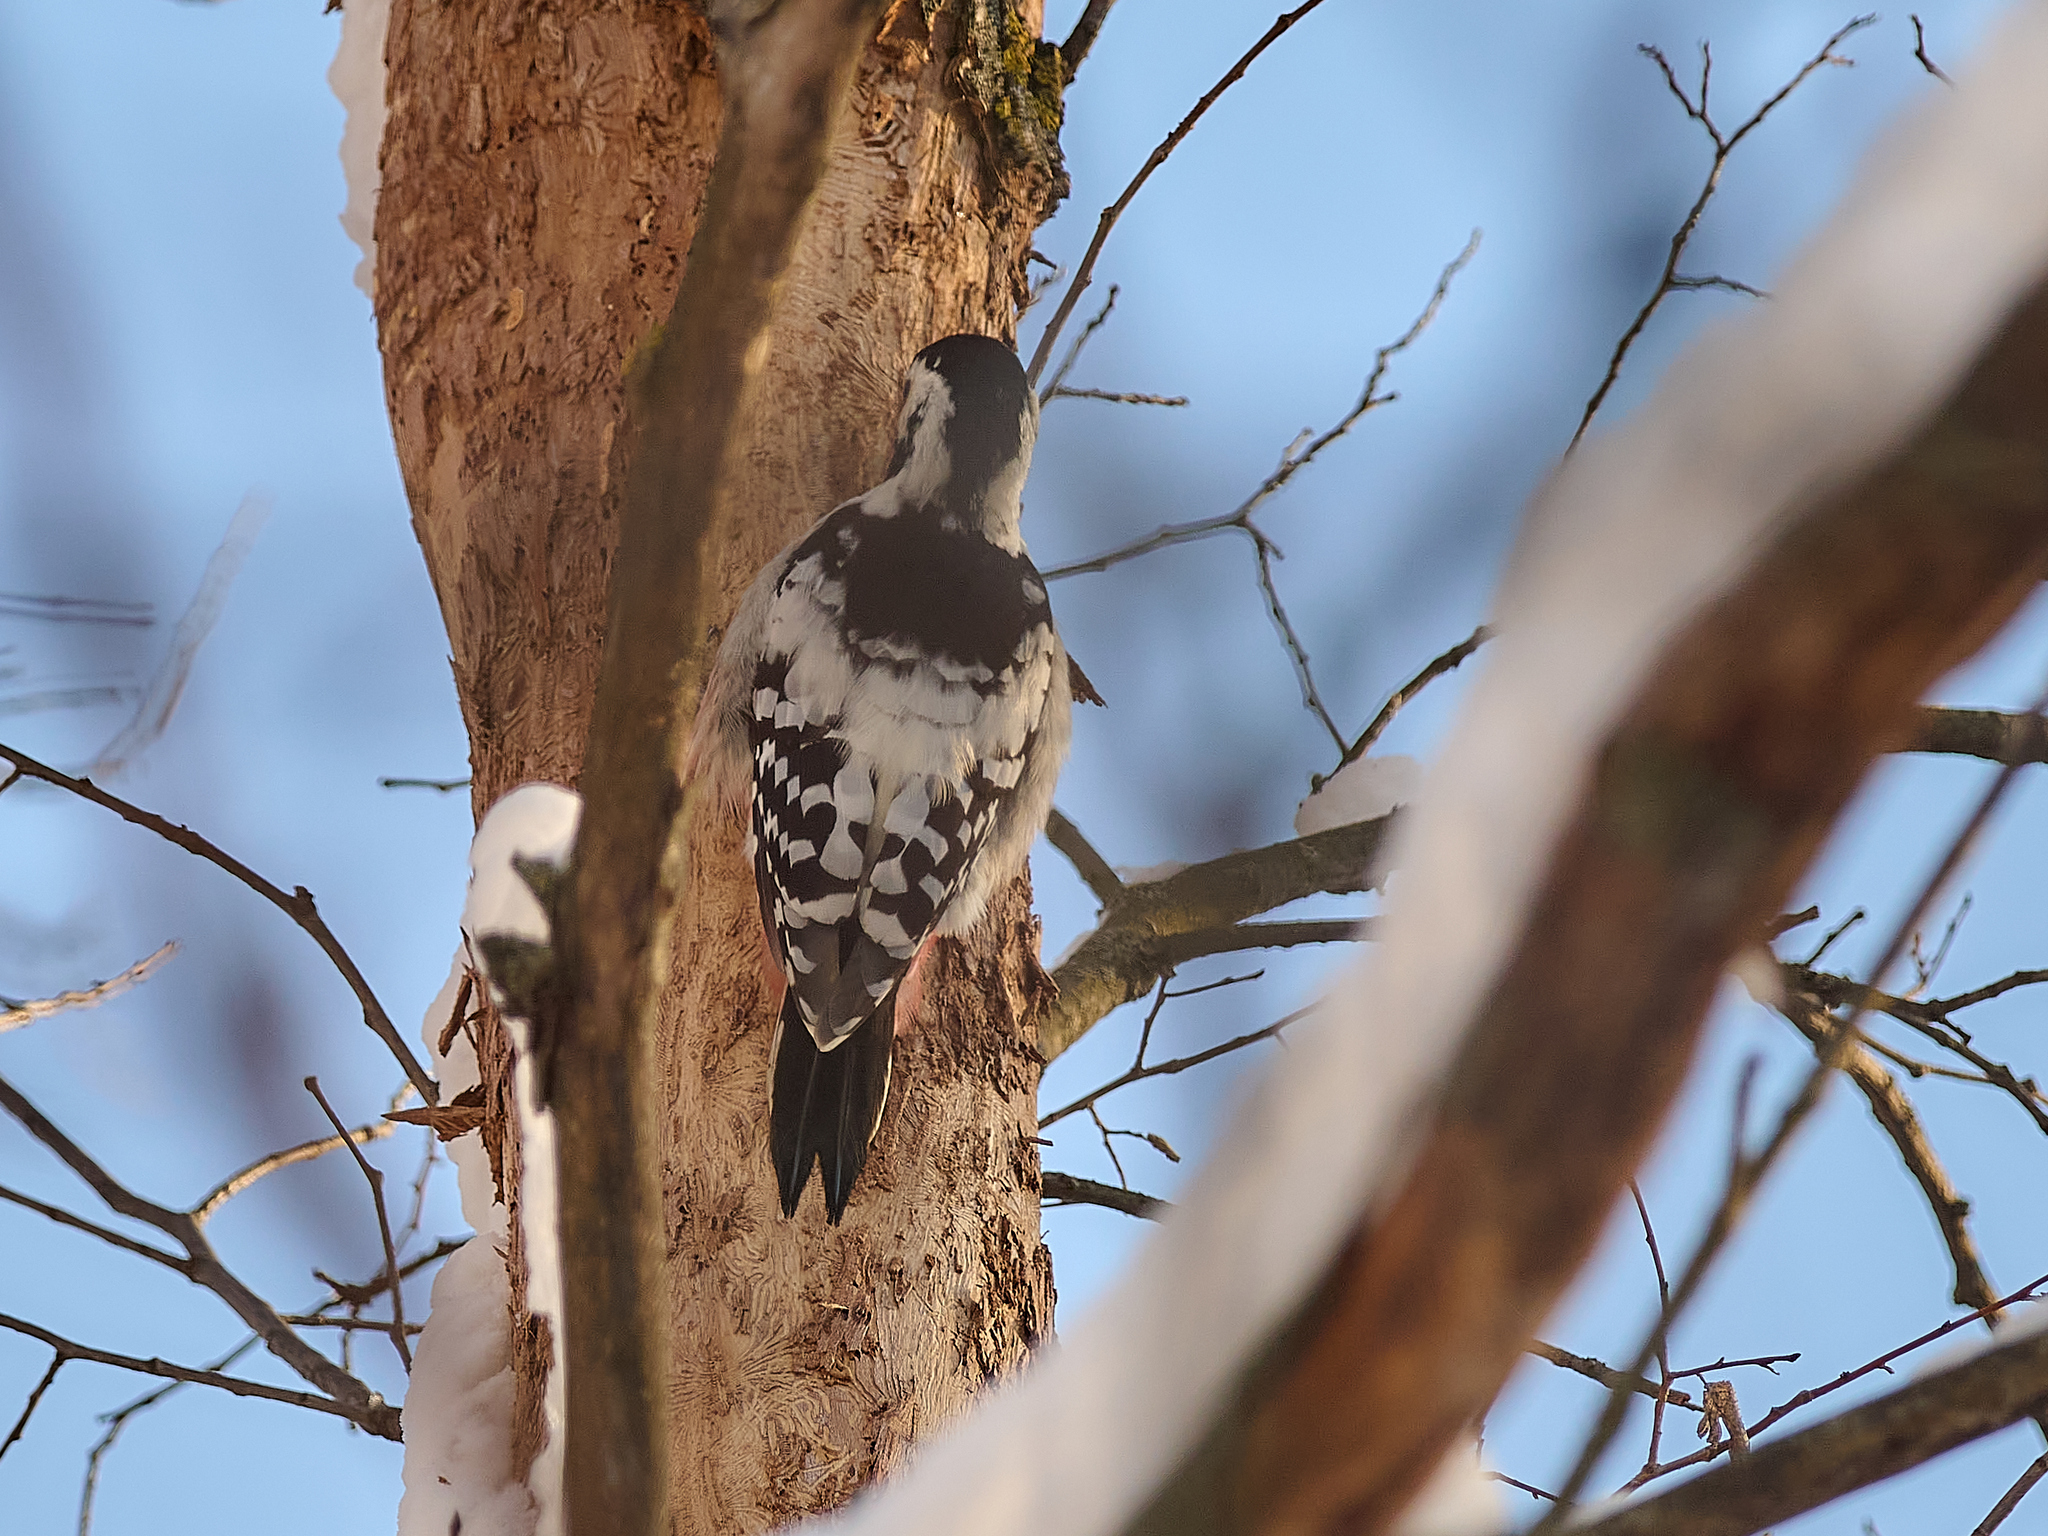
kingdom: Animalia
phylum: Chordata
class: Aves
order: Piciformes
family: Picidae
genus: Dendrocopos
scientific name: Dendrocopos leucotos
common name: White-backed woodpecker
